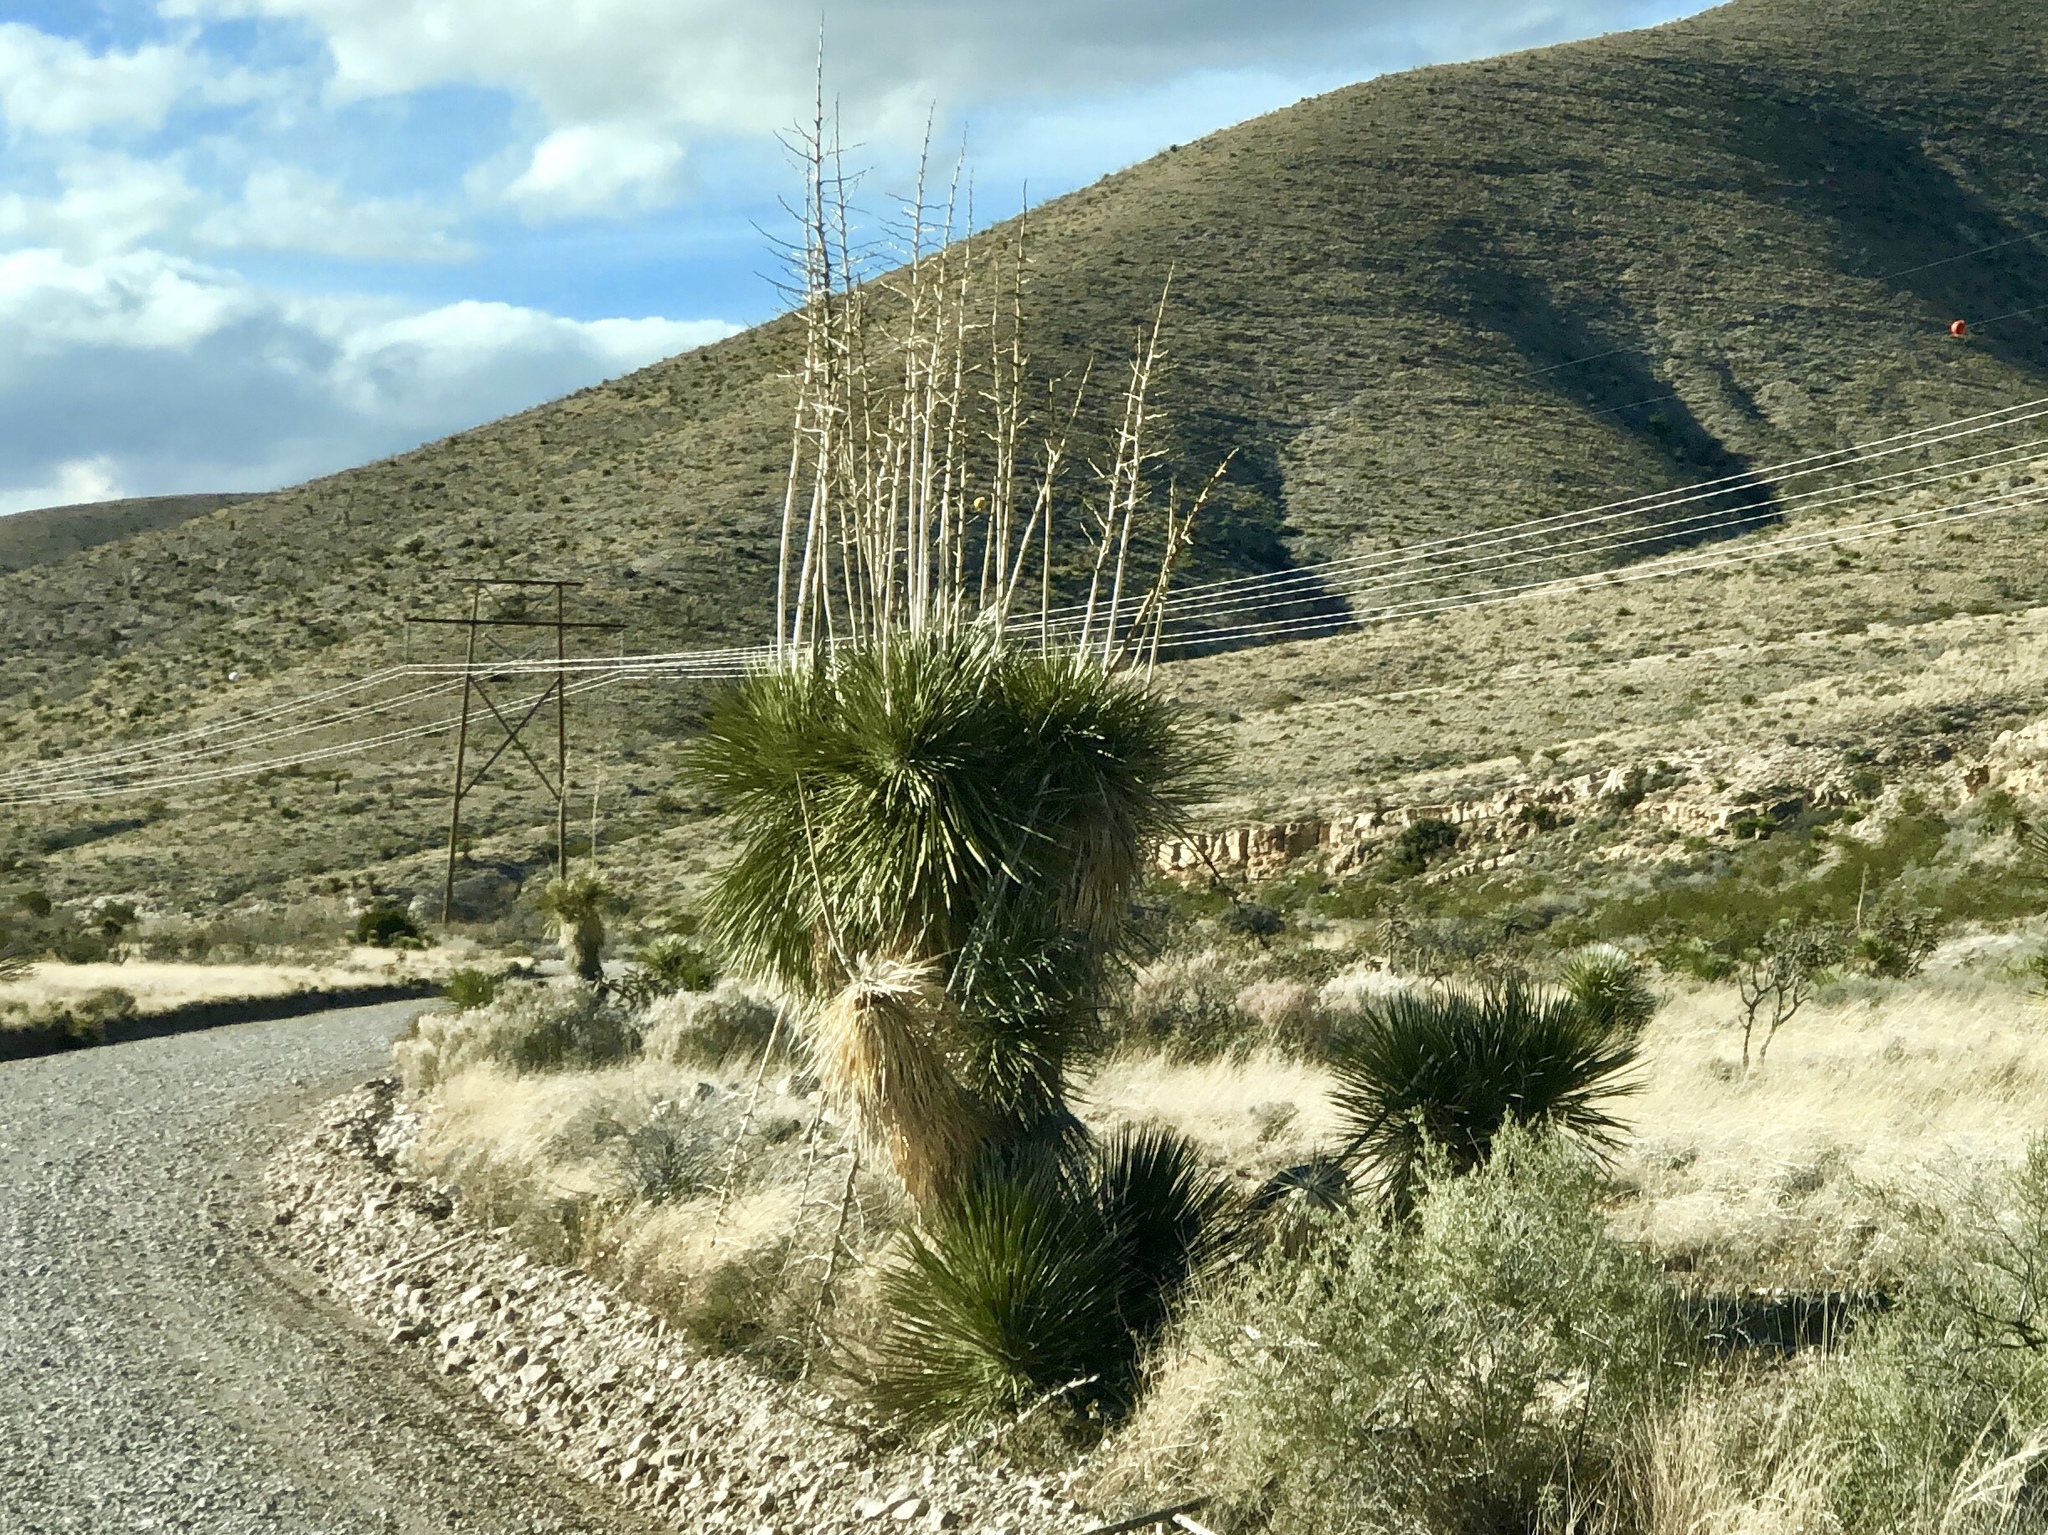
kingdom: Plantae
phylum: Tracheophyta
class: Liliopsida
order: Asparagales
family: Asparagaceae
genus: Yucca
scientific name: Yucca elata
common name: Palmella
